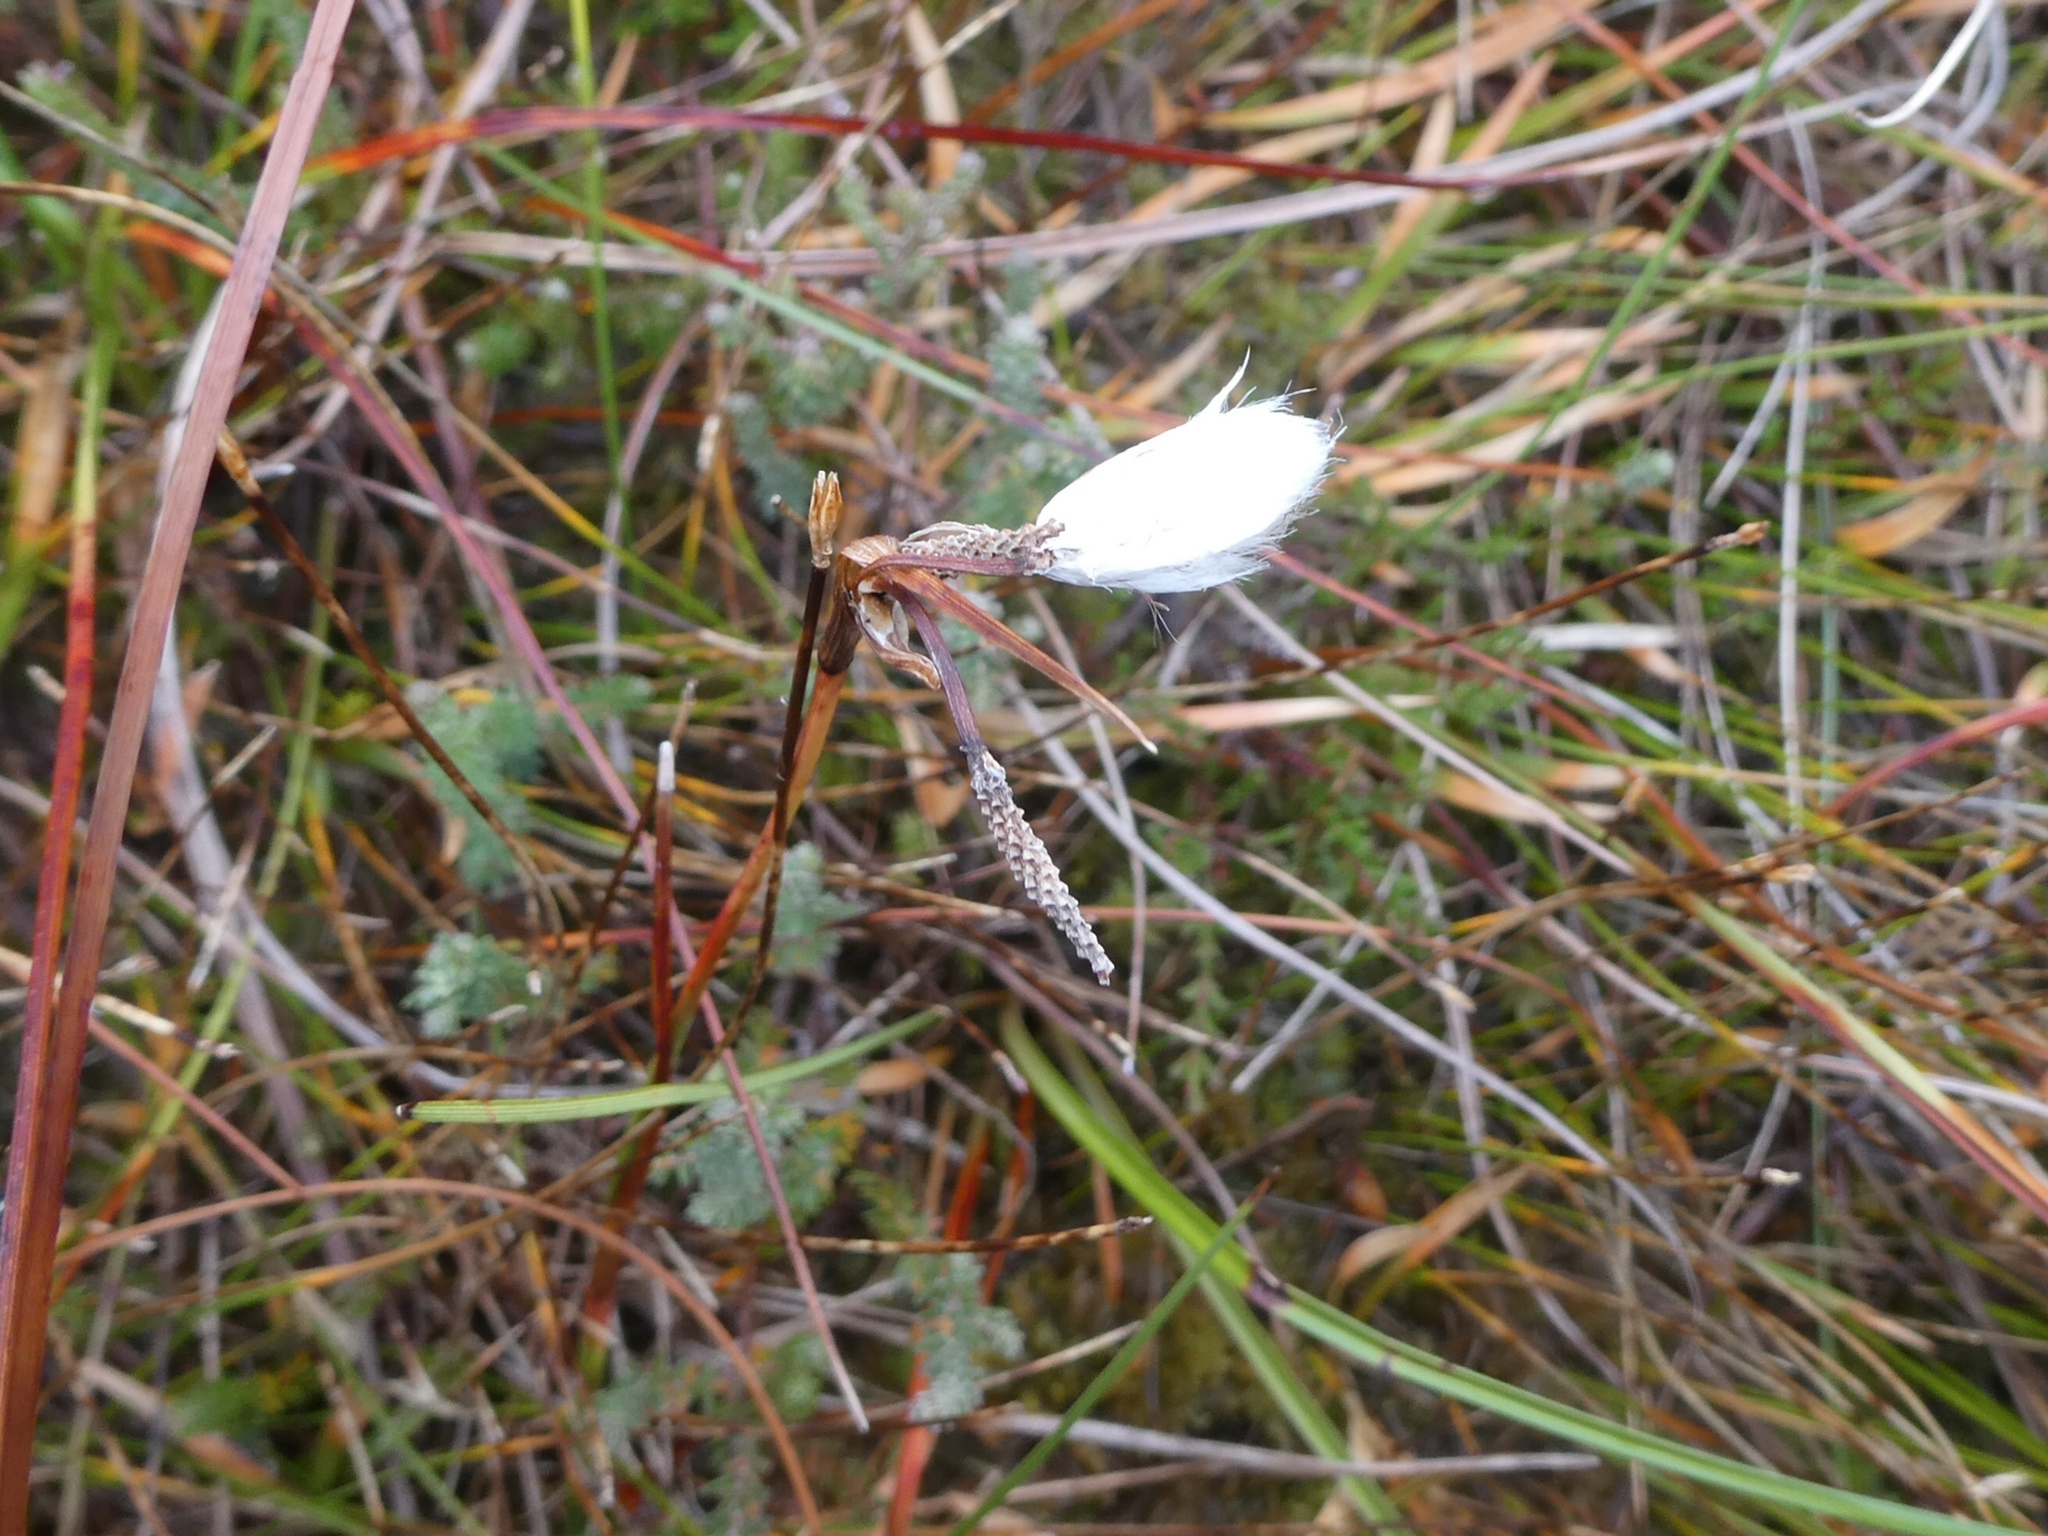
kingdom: Plantae
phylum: Tracheophyta
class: Liliopsida
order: Poales
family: Cyperaceae
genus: Eriophorum
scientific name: Eriophorum angustifolium
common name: Common cottongrass
